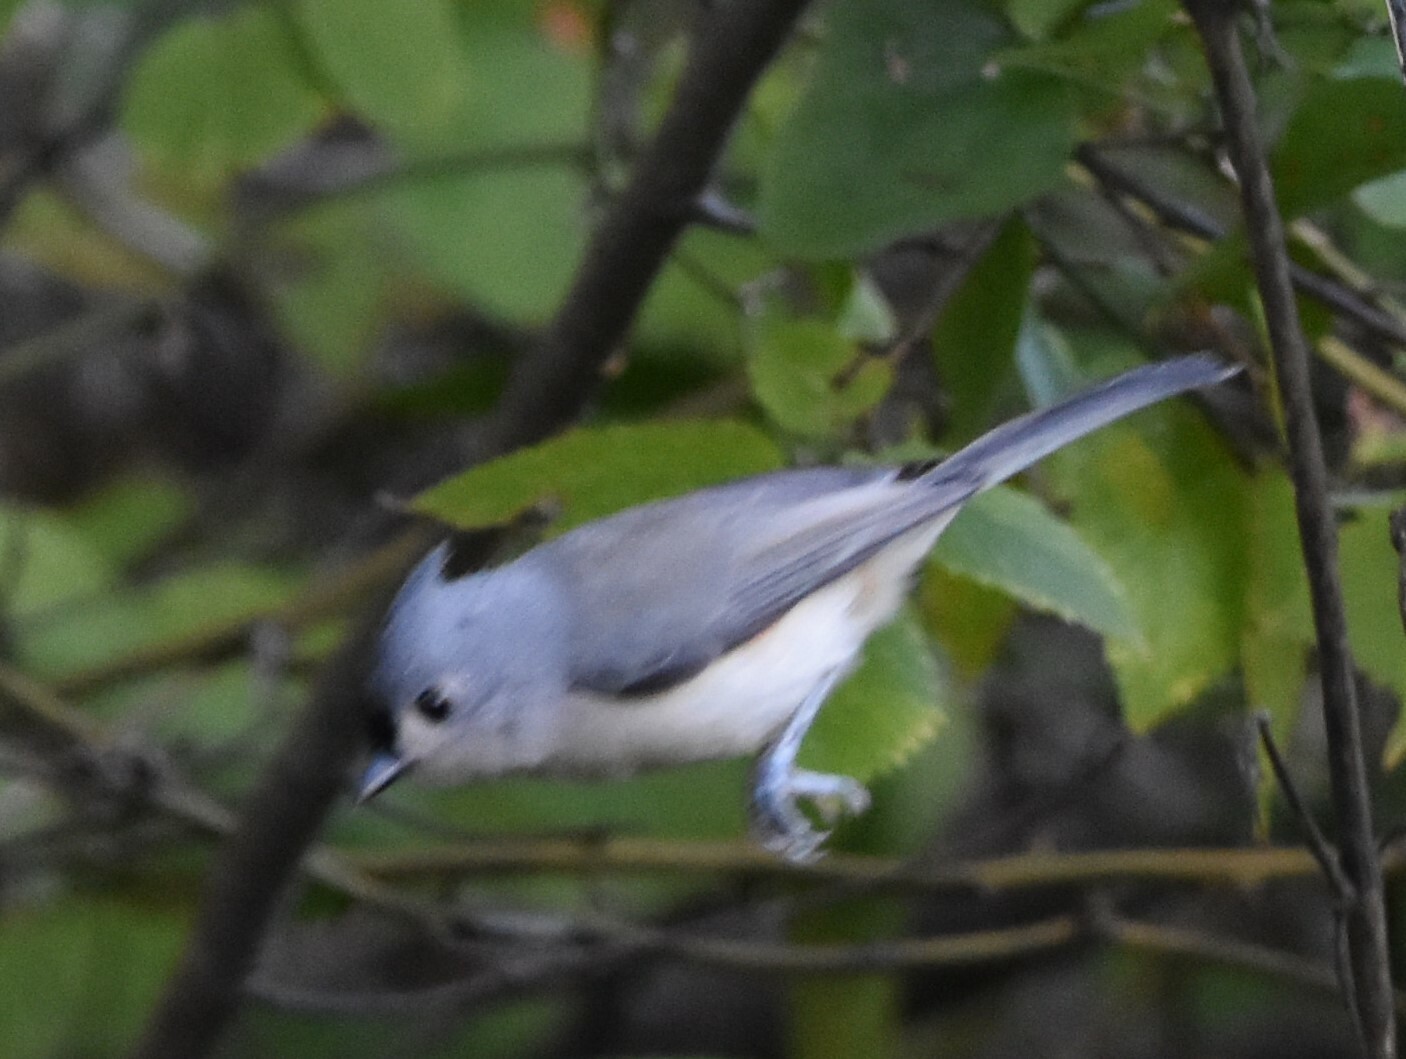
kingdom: Animalia
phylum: Chordata
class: Aves
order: Passeriformes
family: Paridae
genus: Baeolophus
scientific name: Baeolophus bicolor
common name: Tufted titmouse
